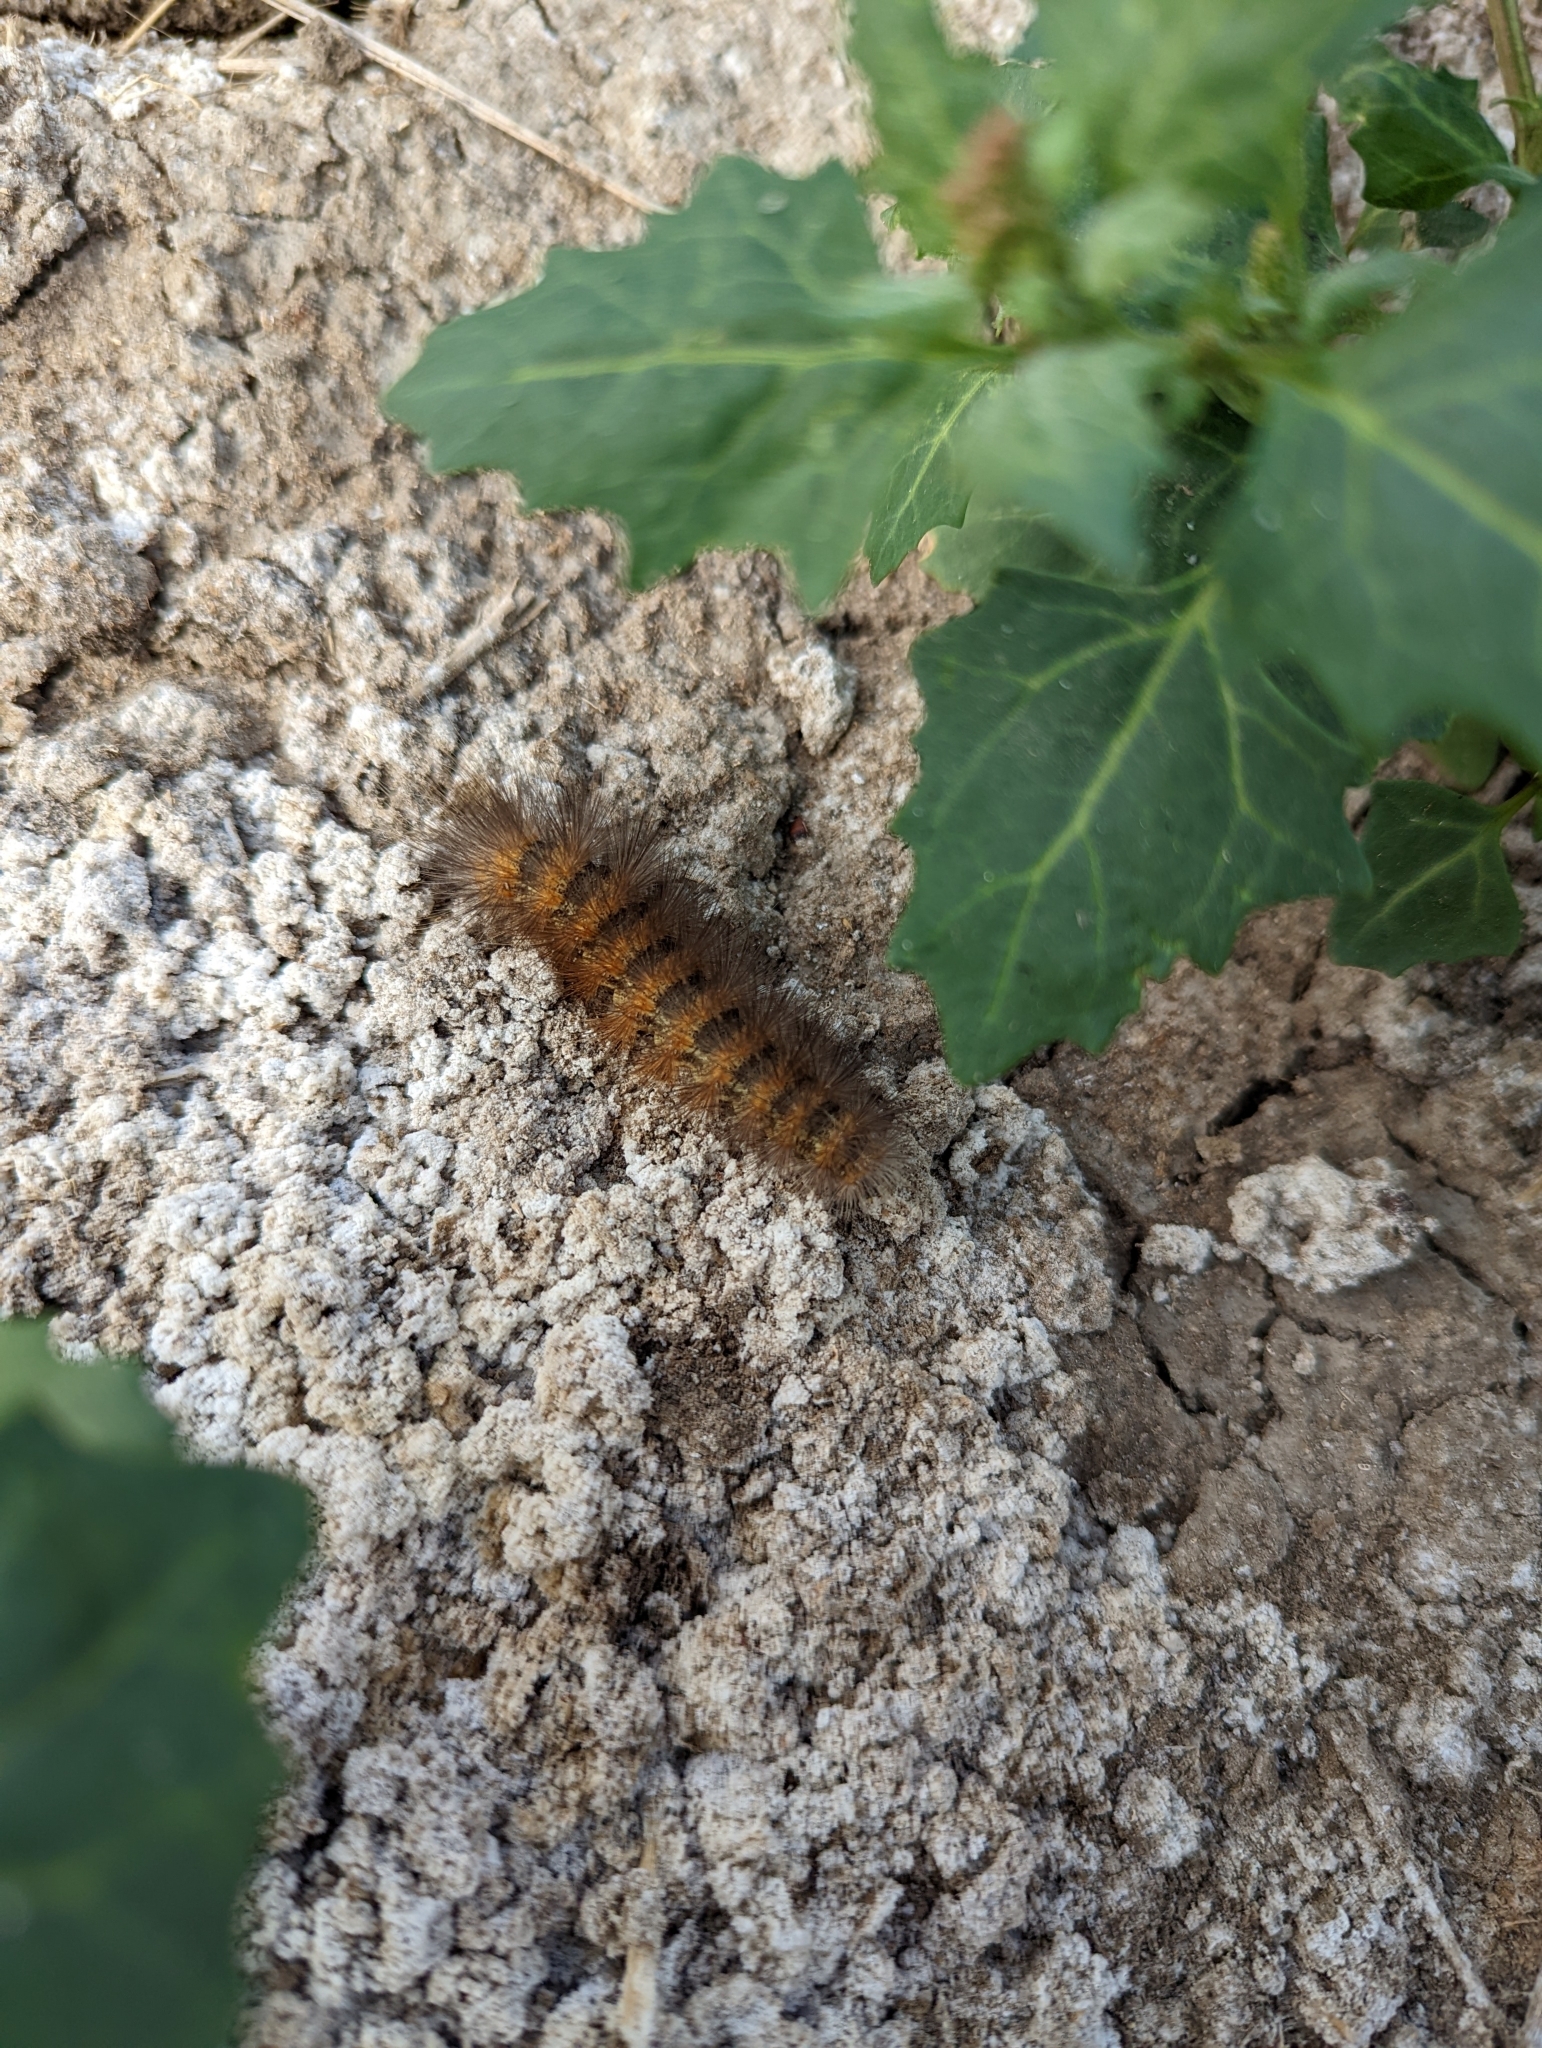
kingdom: Animalia
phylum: Arthropoda
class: Insecta
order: Lepidoptera
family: Erebidae
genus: Estigmene
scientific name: Estigmene acrea
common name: Salt marsh moth
